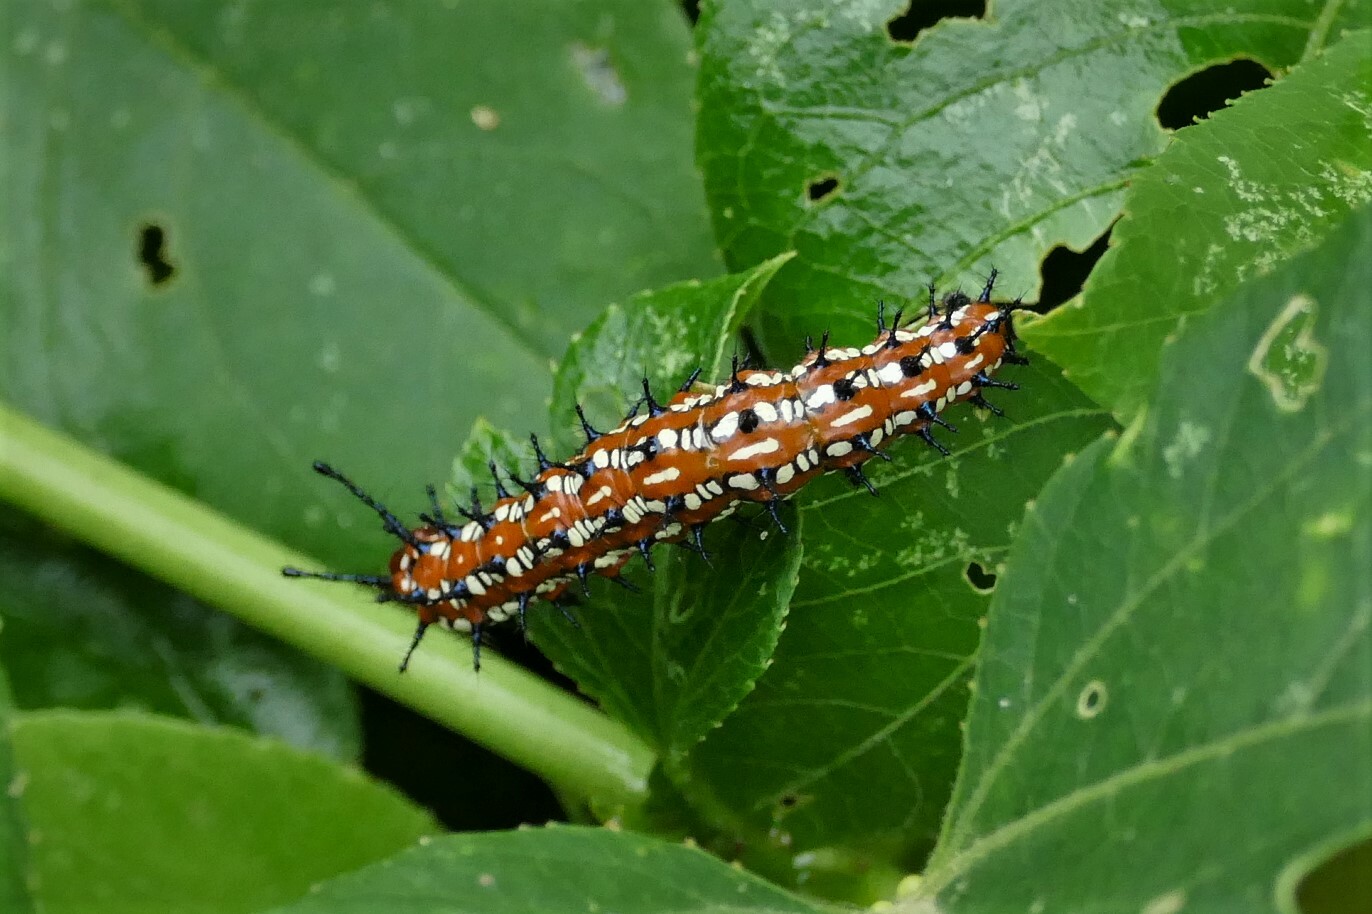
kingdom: Animalia
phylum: Arthropoda
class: Insecta
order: Lepidoptera
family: Nymphalidae
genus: Euptoieta
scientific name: Euptoieta claudia
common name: Variegated fritillary
